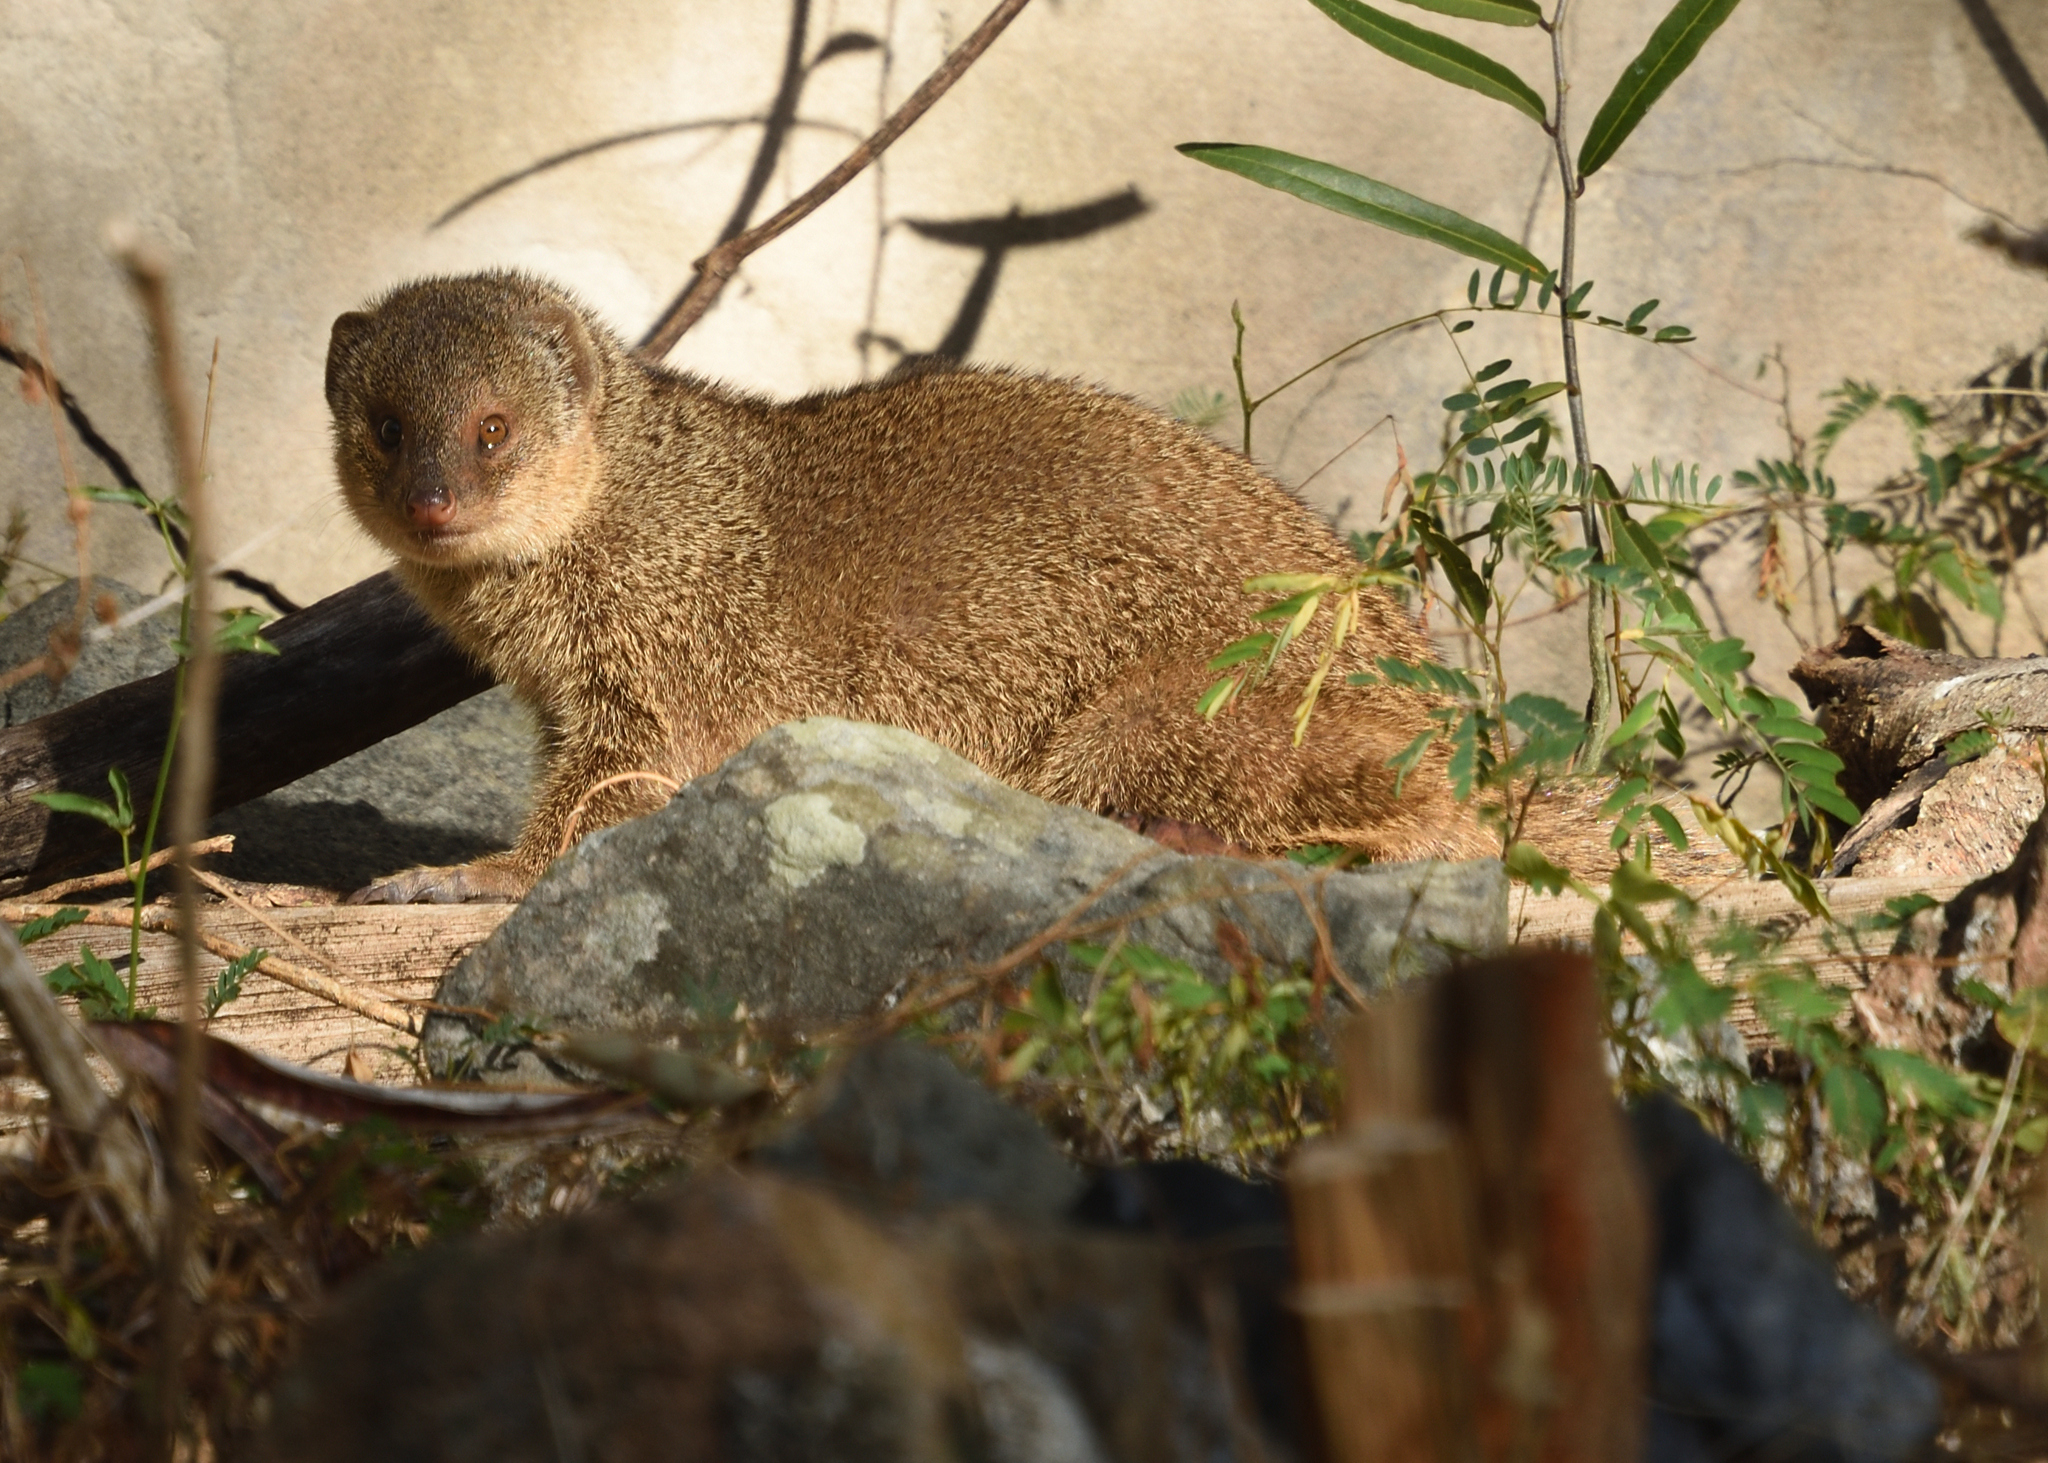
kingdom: Animalia
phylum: Chordata
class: Mammalia
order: Carnivora
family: Herpestidae
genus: Herpestes
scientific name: Herpestes javanicus
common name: Small asian mongoose
